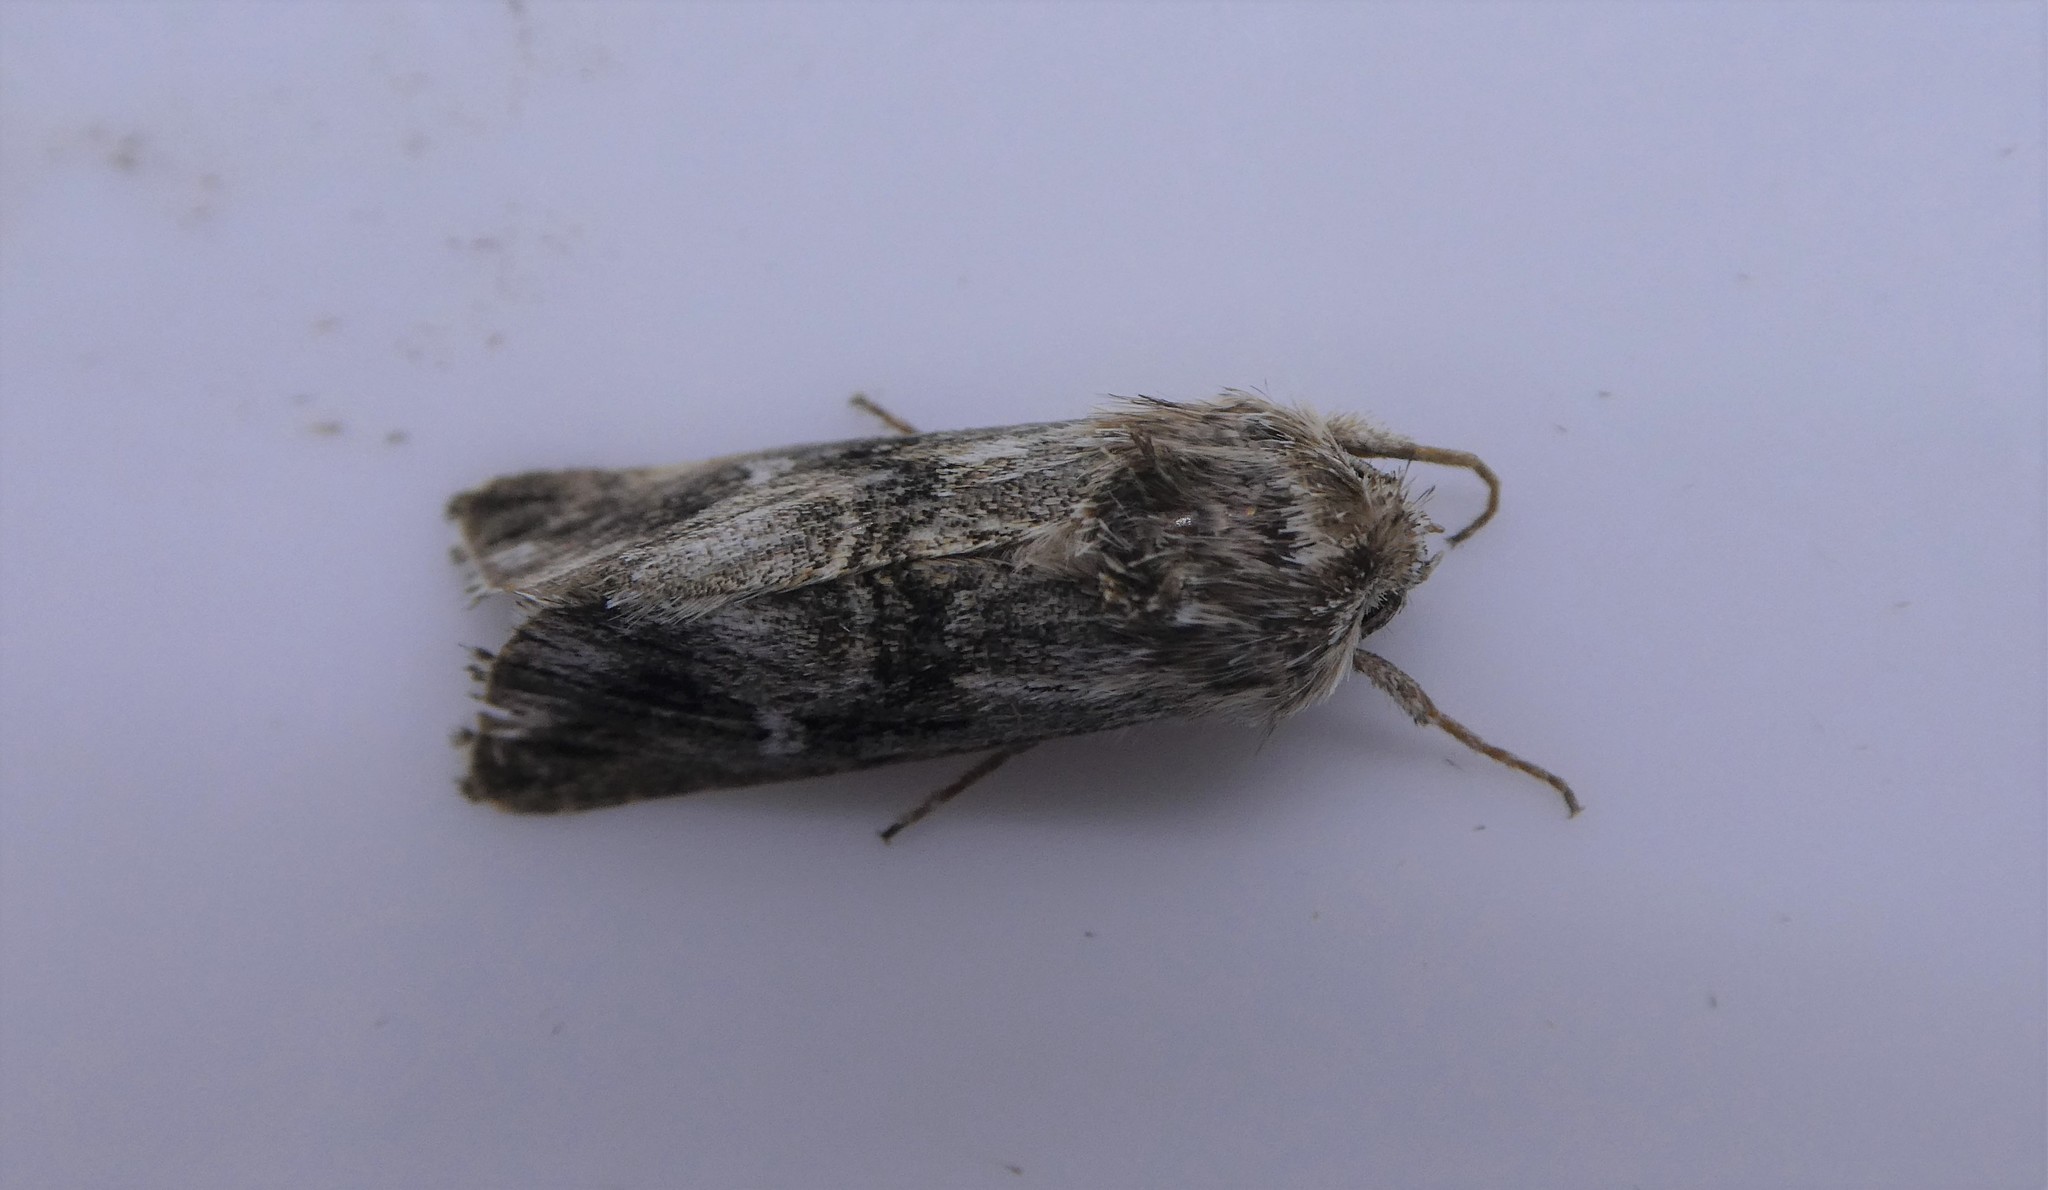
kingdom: Animalia
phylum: Arthropoda
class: Insecta
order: Lepidoptera
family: Noctuidae
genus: Calophasia
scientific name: Calophasia lunula
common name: Toadflax brocade
